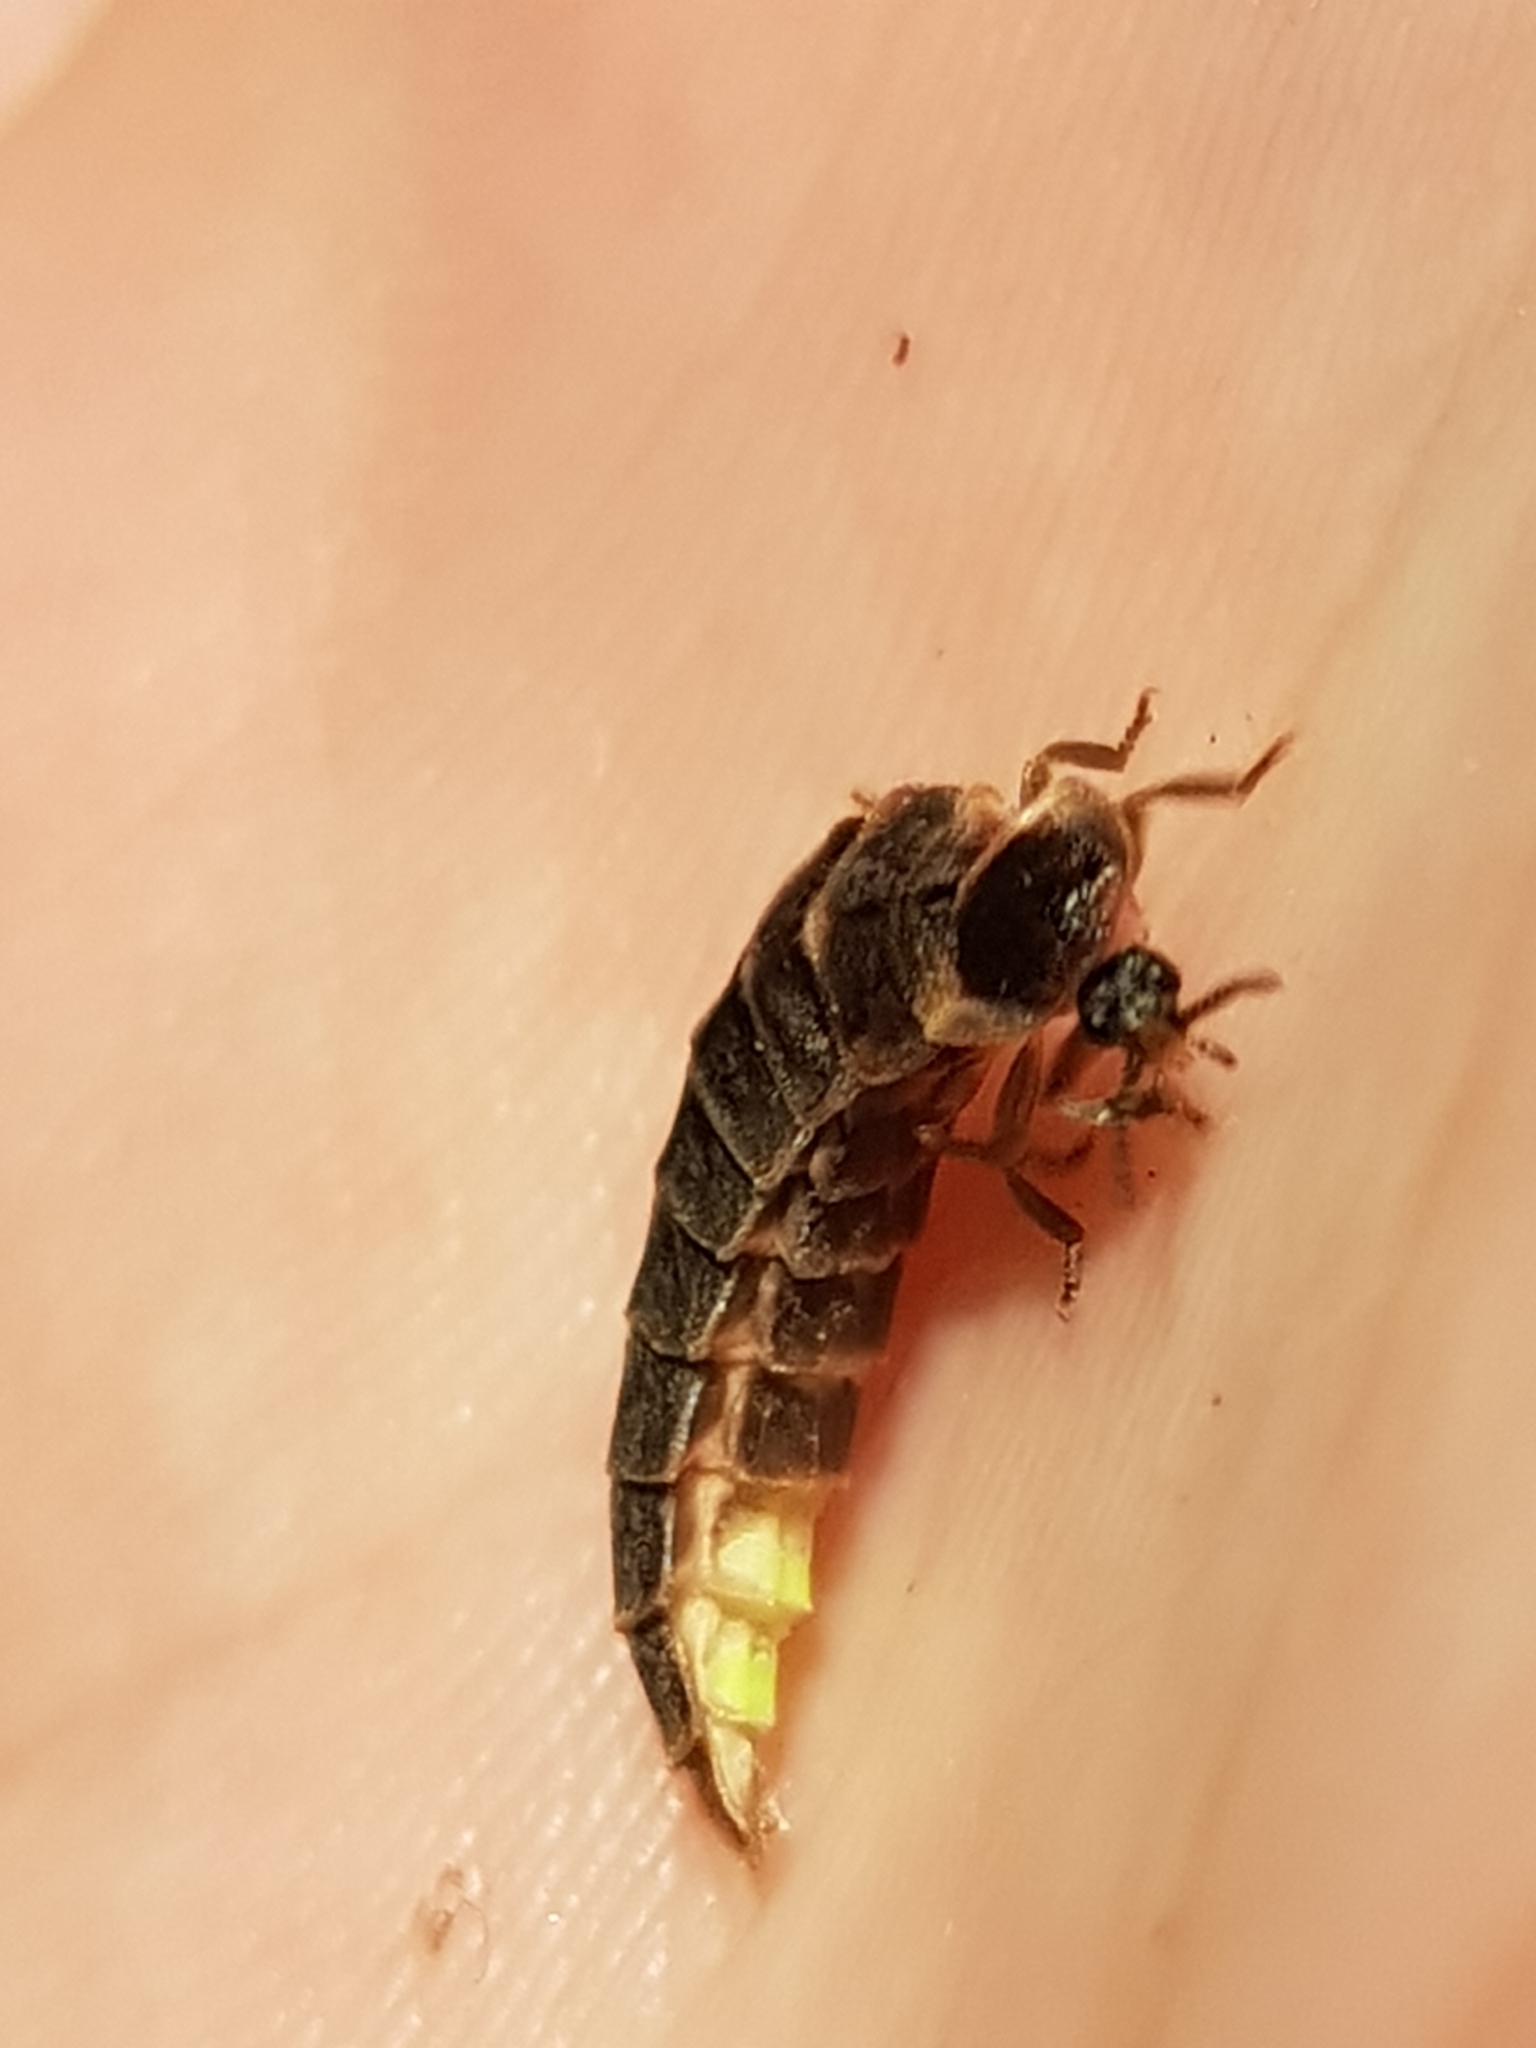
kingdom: Animalia
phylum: Arthropoda
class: Insecta
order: Coleoptera
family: Lampyridae
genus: Lampyris
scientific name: Lampyris noctiluca
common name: Glow-worm
